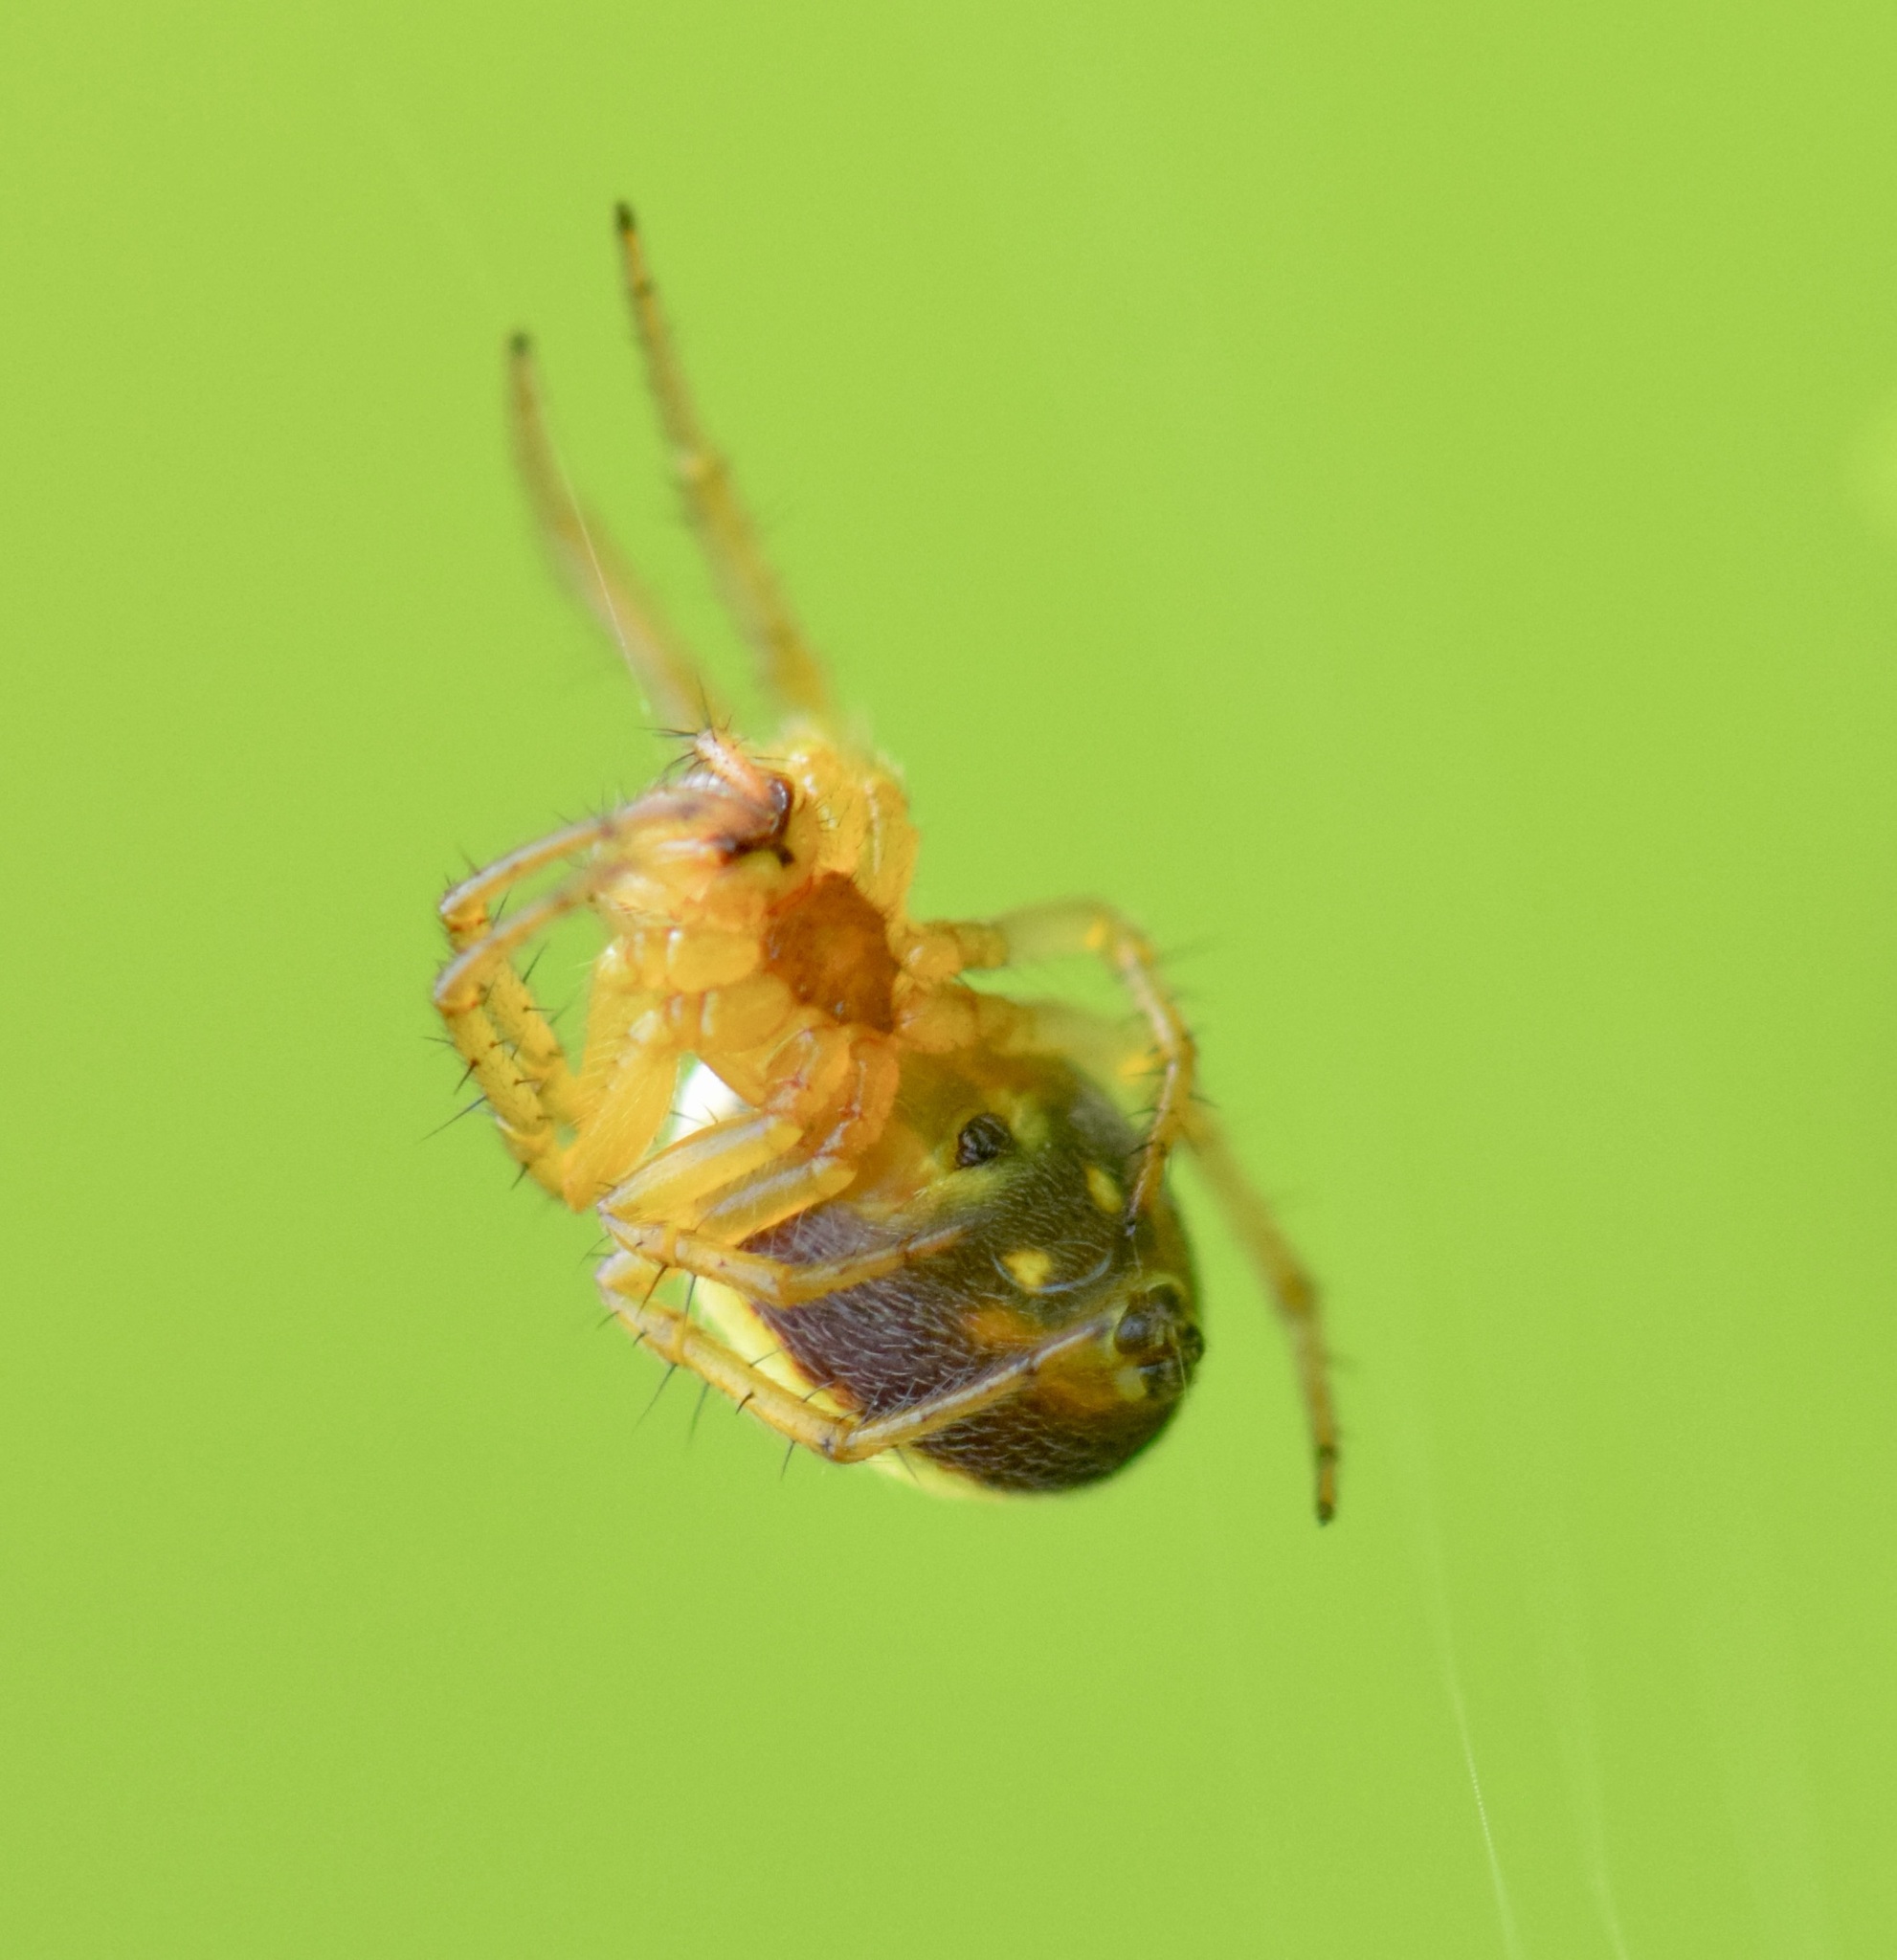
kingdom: Animalia
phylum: Arthropoda
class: Arachnida
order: Araneae
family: Araneidae
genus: Araniella
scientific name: Araniella displicata
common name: Sixspotted orb weaver
